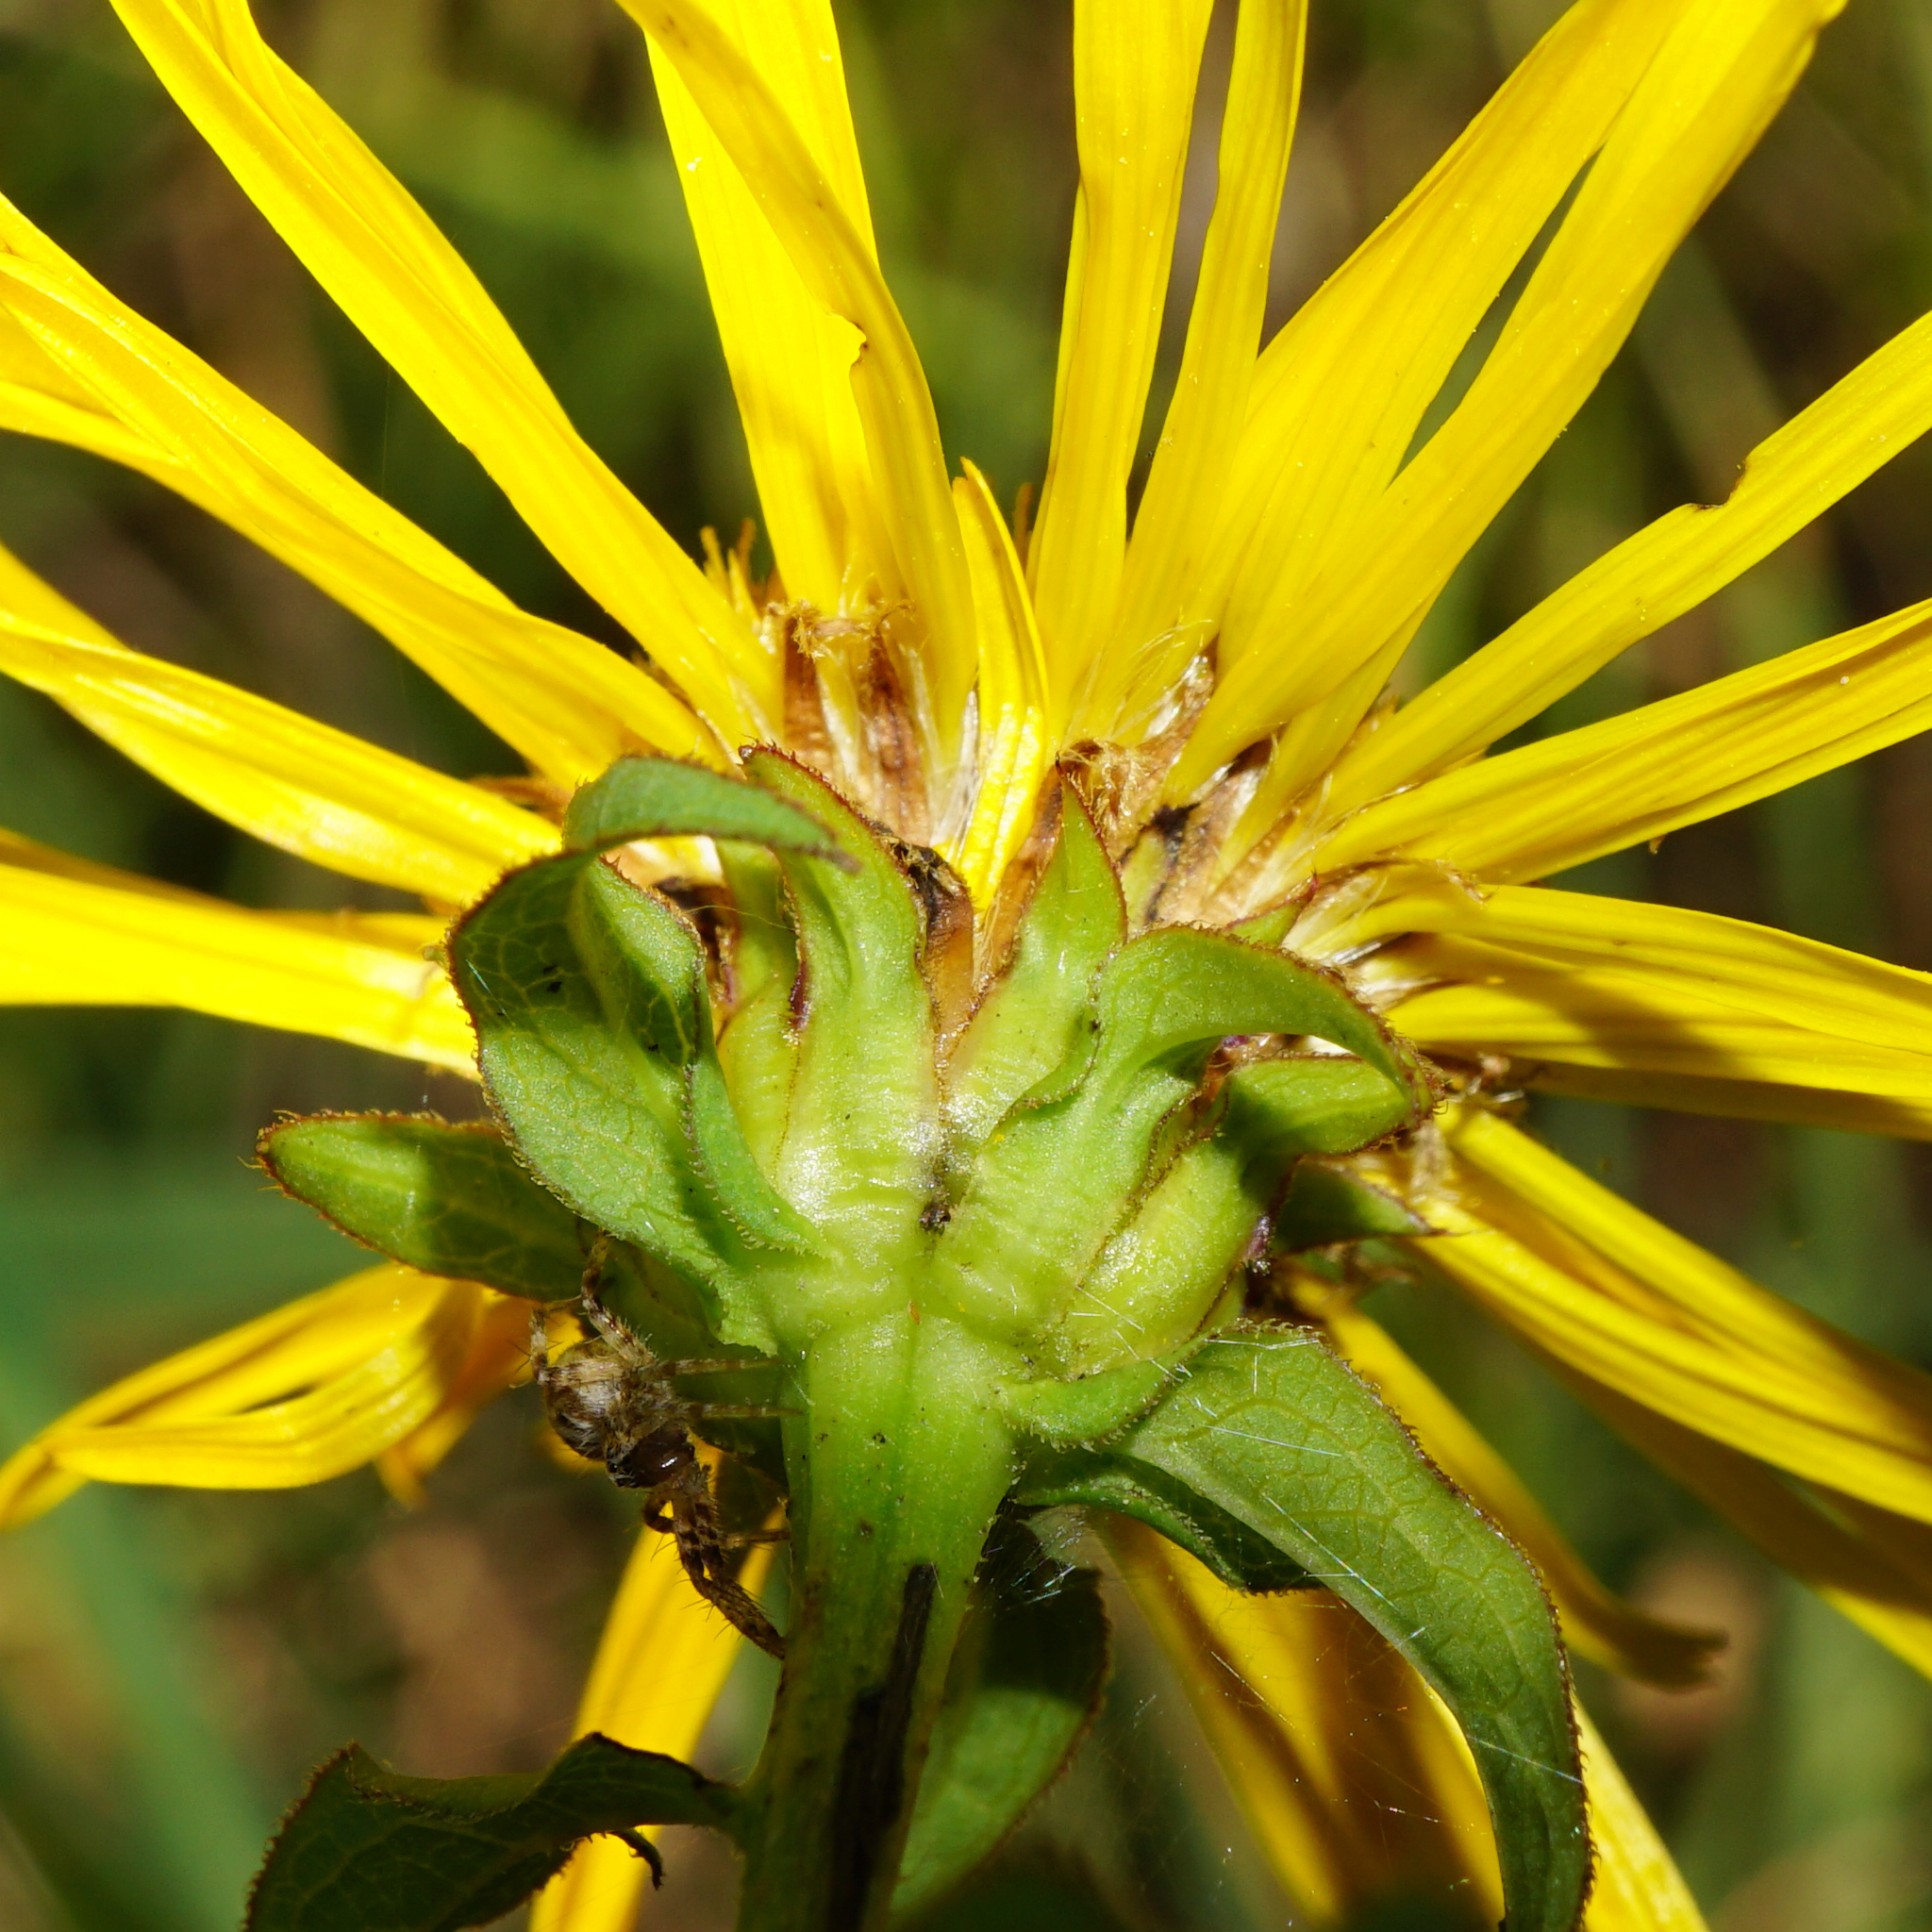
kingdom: Plantae
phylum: Tracheophyta
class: Magnoliopsida
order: Asterales
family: Asteraceae
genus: Pentanema
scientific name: Pentanema salicinum
